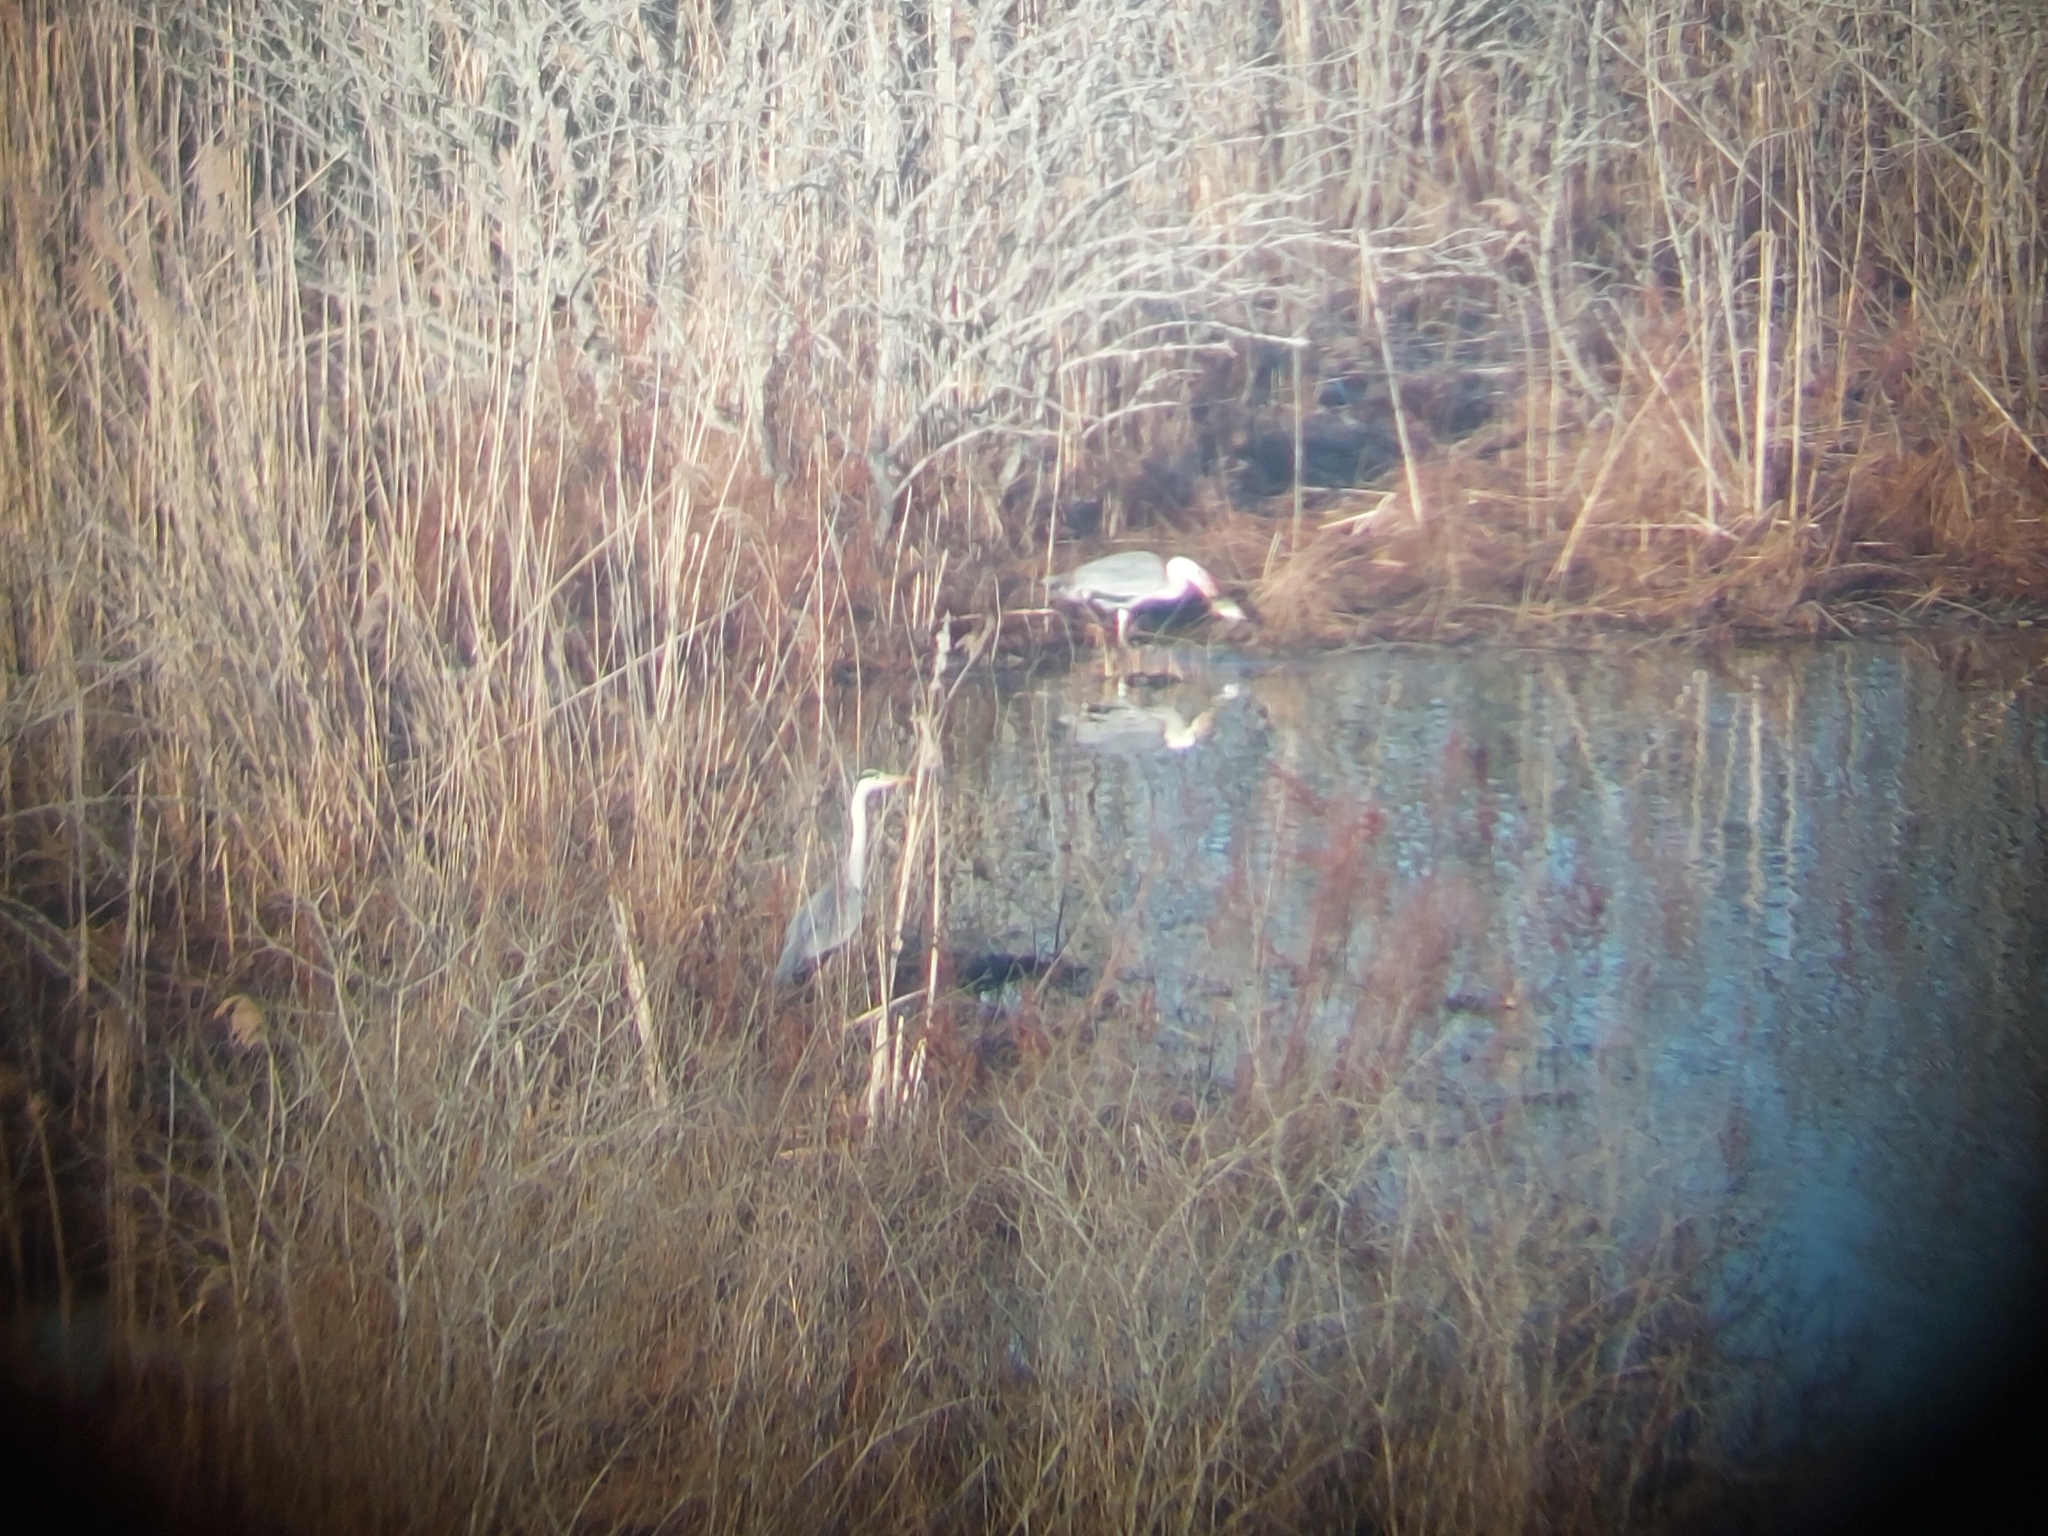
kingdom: Animalia
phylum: Chordata
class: Aves
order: Pelecaniformes
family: Ardeidae
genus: Ardea
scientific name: Ardea cinerea
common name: Grey heron
